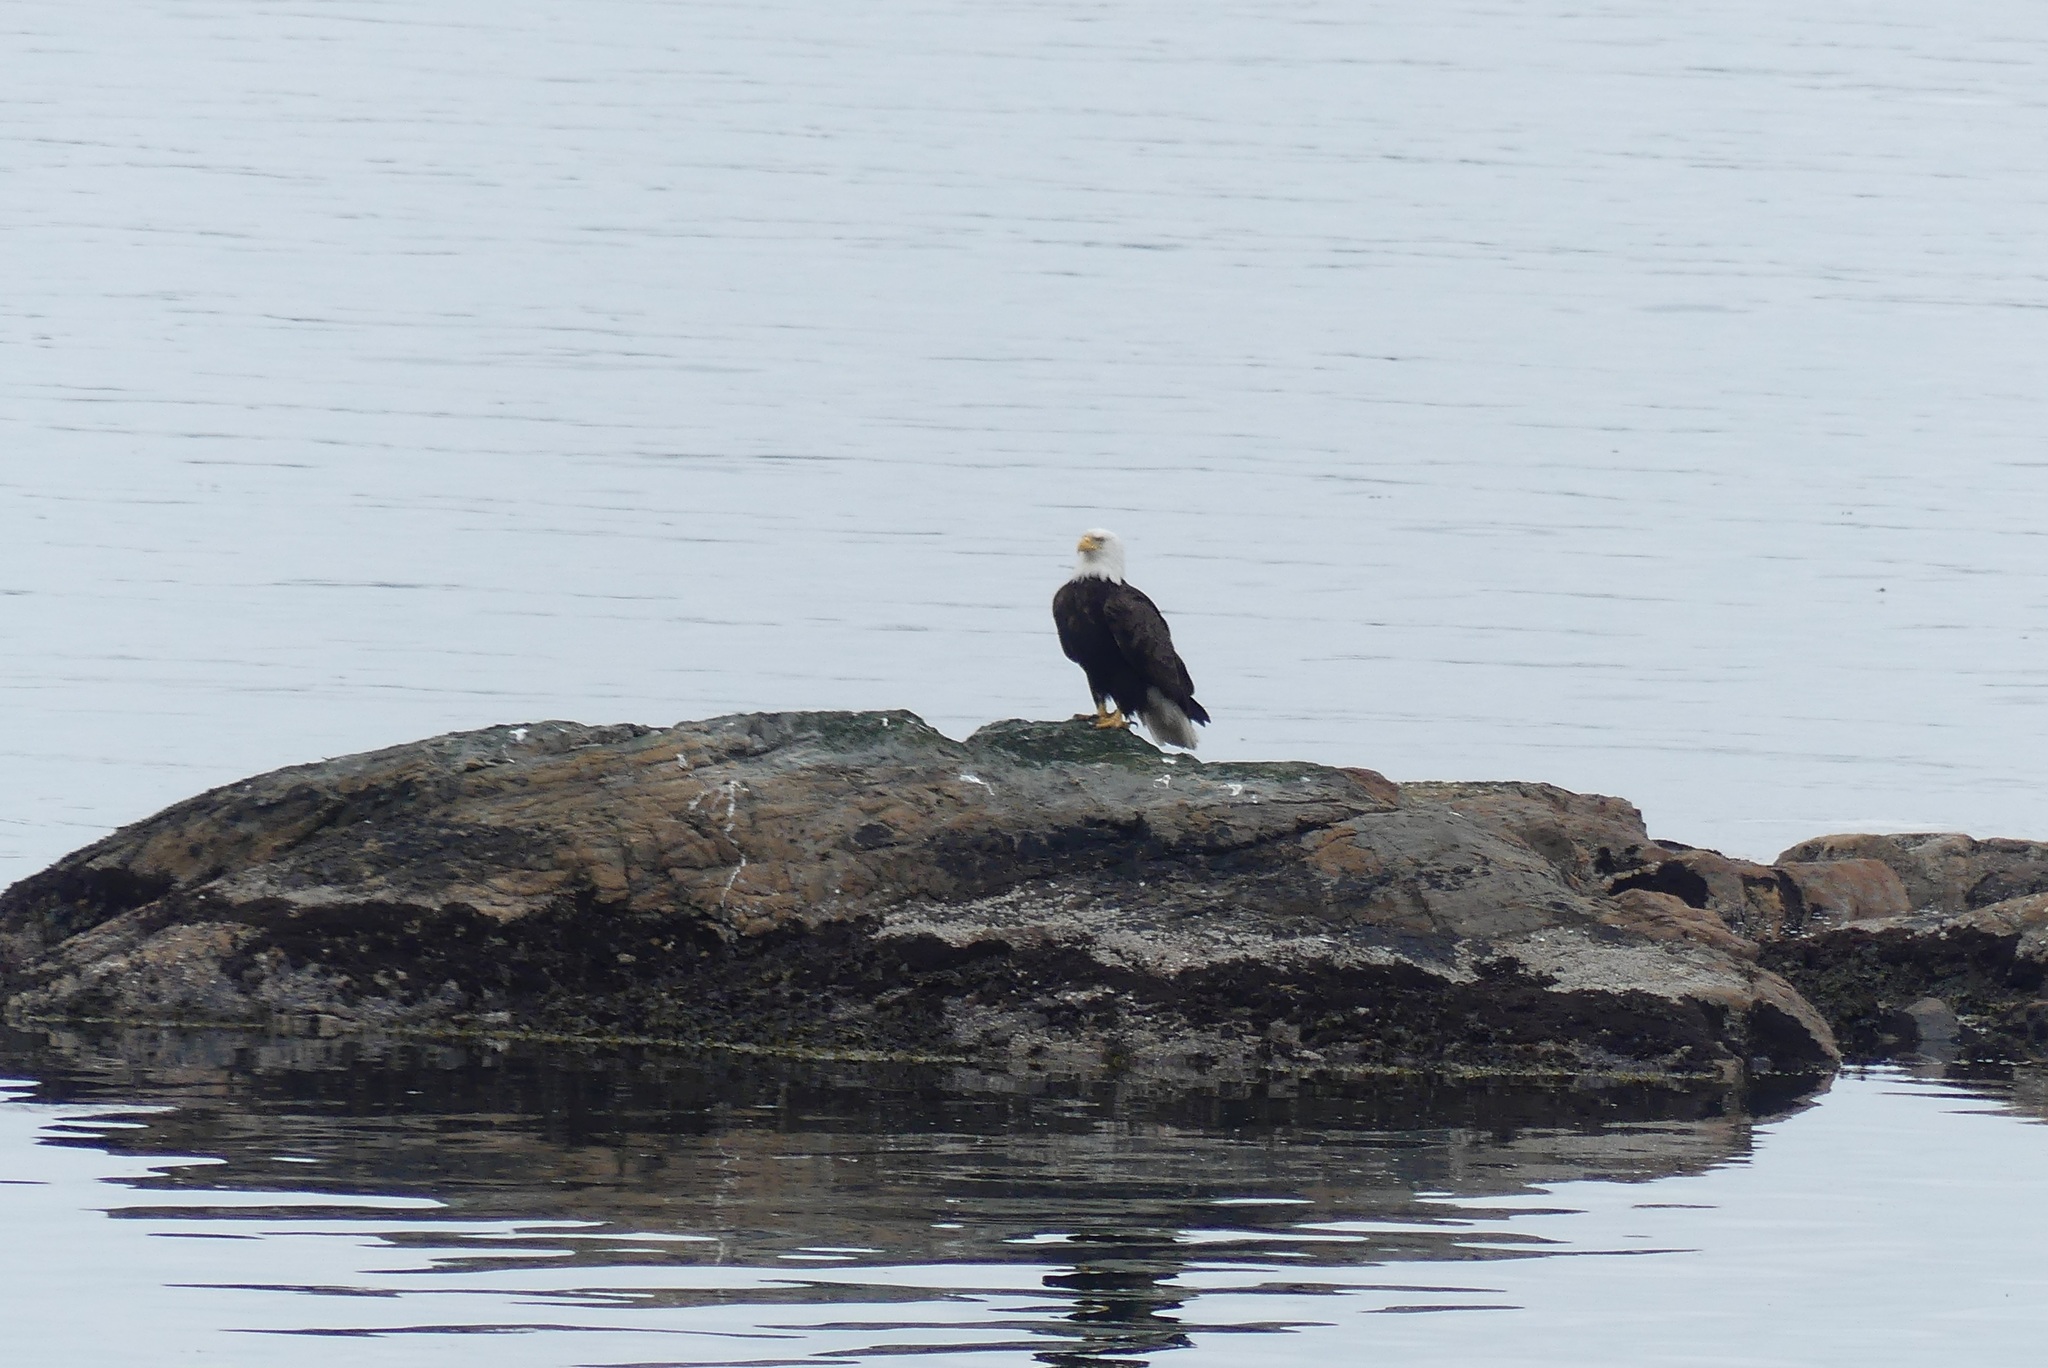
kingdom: Animalia
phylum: Chordata
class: Aves
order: Accipitriformes
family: Accipitridae
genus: Haliaeetus
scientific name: Haliaeetus leucocephalus
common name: Bald eagle
